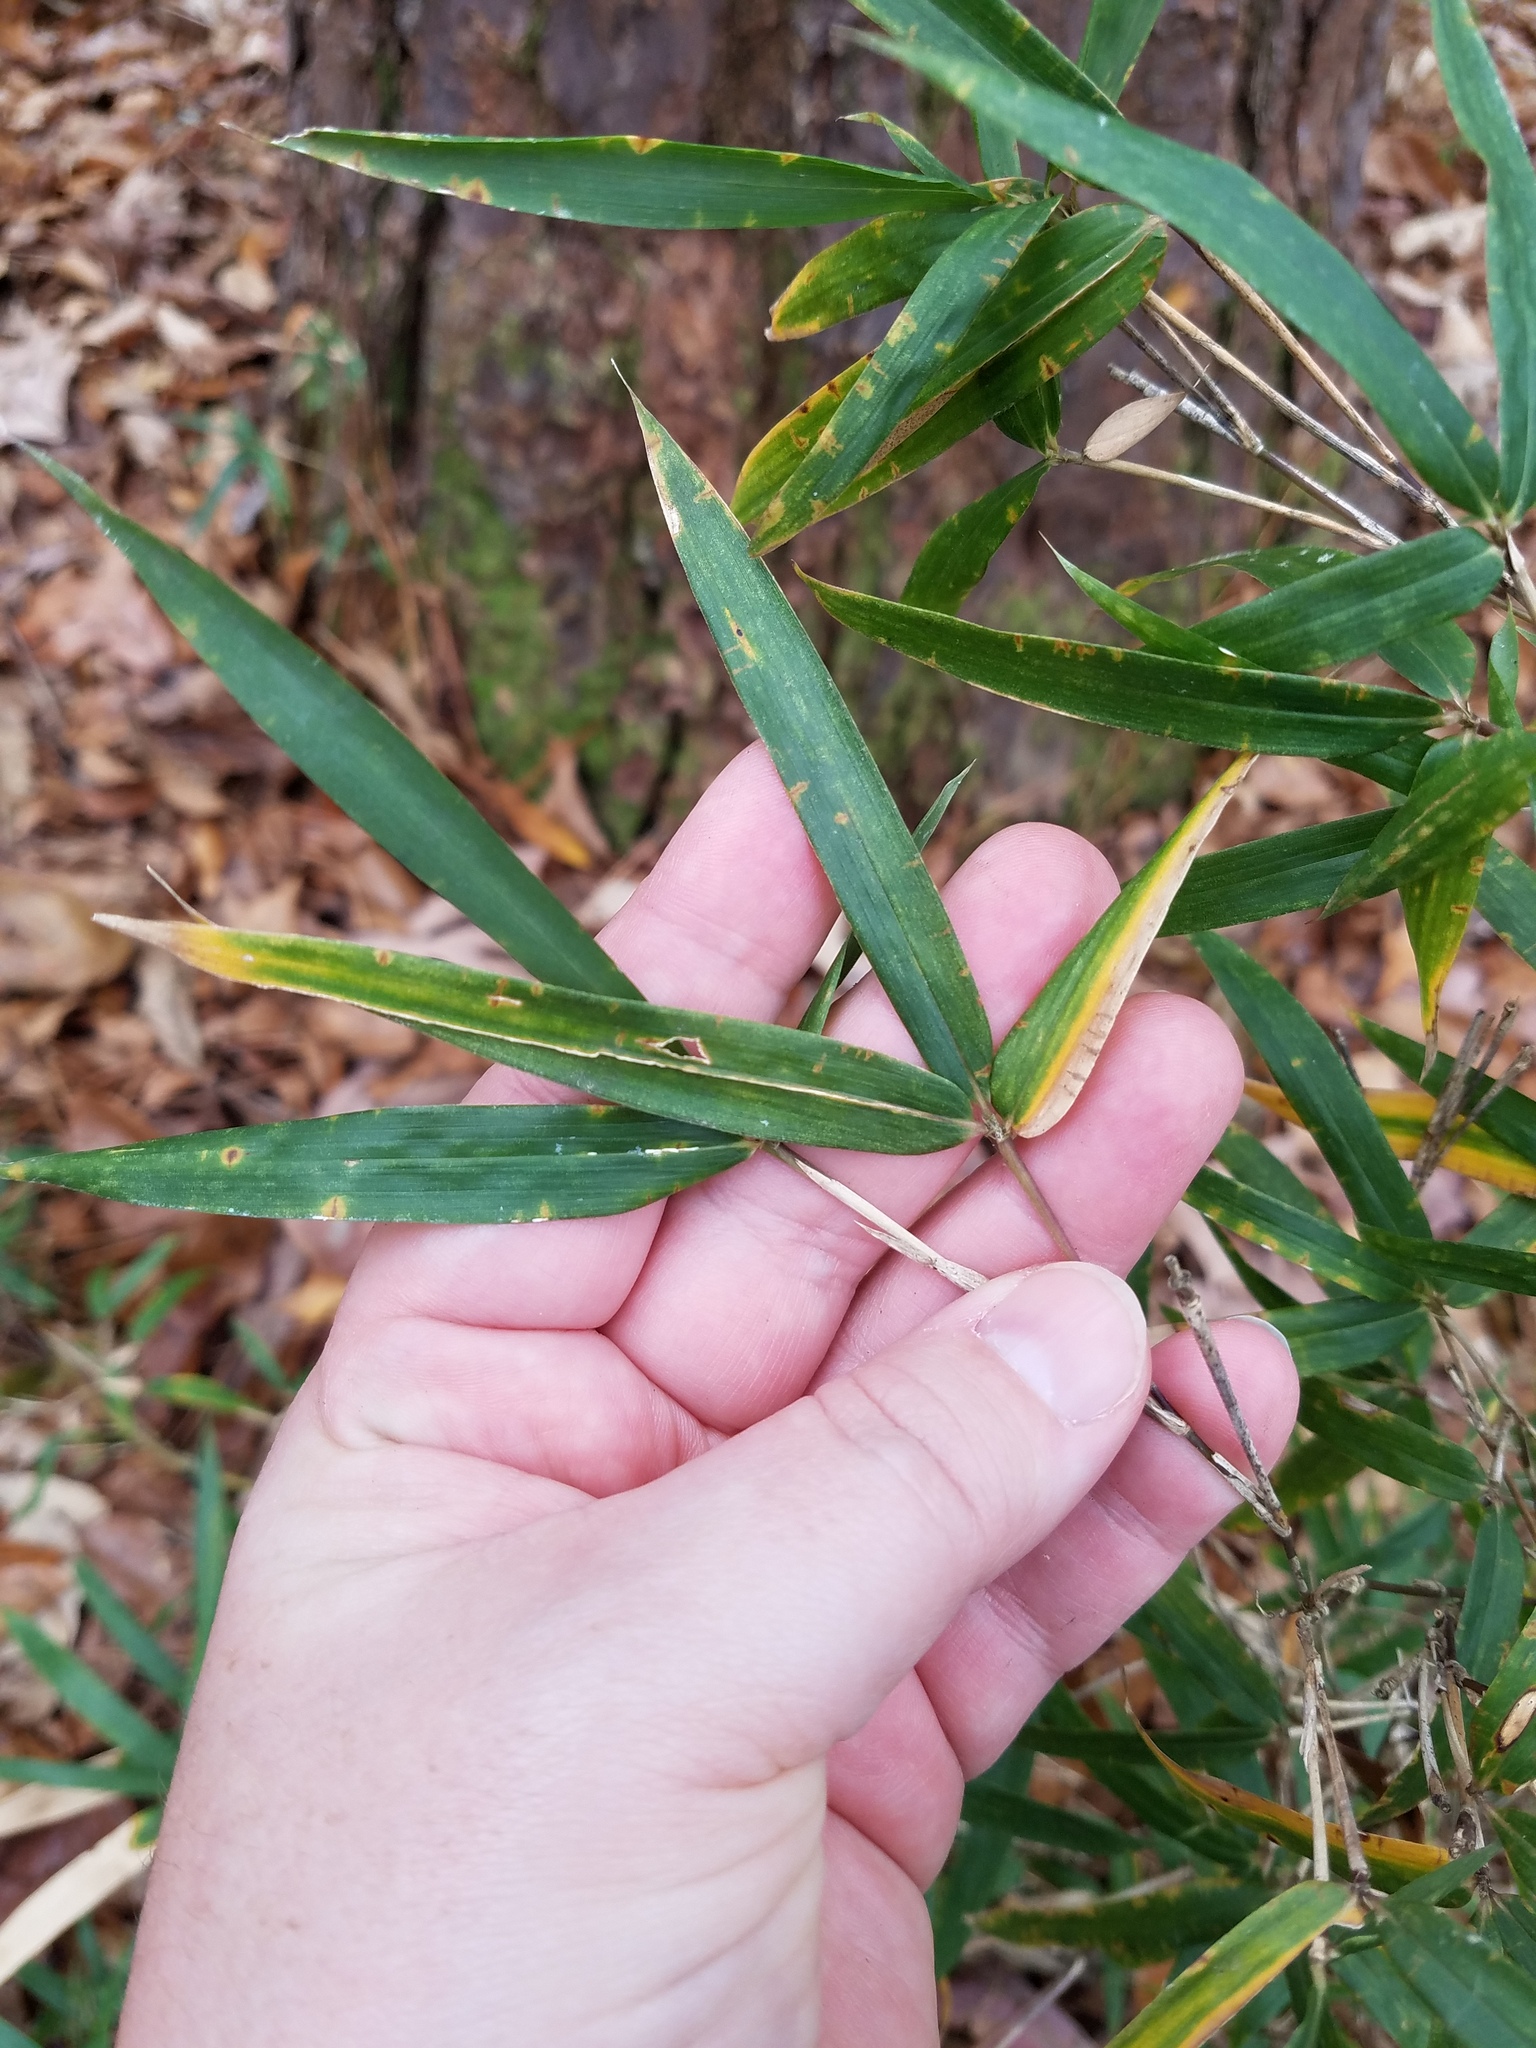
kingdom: Plantae
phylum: Tracheophyta
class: Liliopsida
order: Poales
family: Poaceae
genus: Arundinaria
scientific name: Arundinaria gigantea
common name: Giant cane
